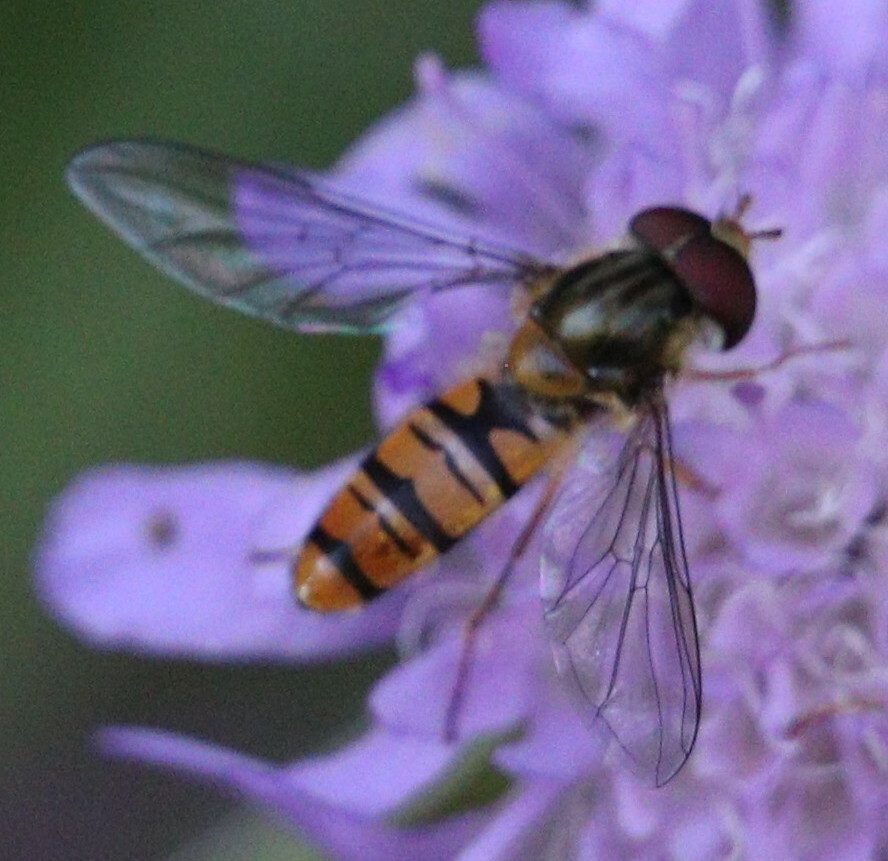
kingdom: Animalia
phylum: Arthropoda
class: Insecta
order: Diptera
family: Syrphidae
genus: Episyrphus
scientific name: Episyrphus balteatus
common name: Marmalade hoverfly
